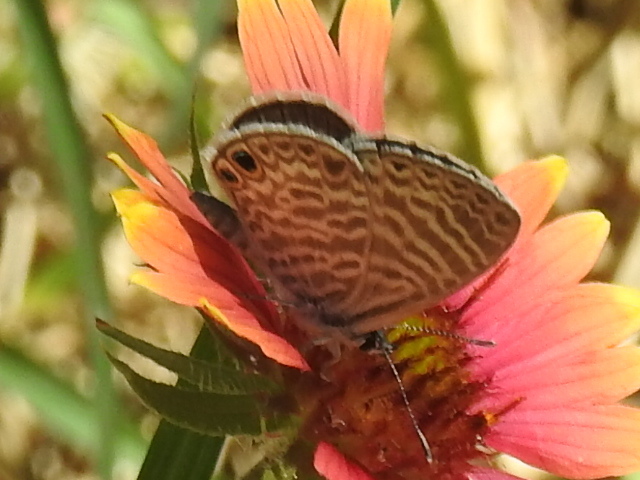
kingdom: Animalia
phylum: Arthropoda
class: Insecta
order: Lepidoptera
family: Lycaenidae
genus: Leptotes
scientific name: Leptotes marina
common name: Marine blue
